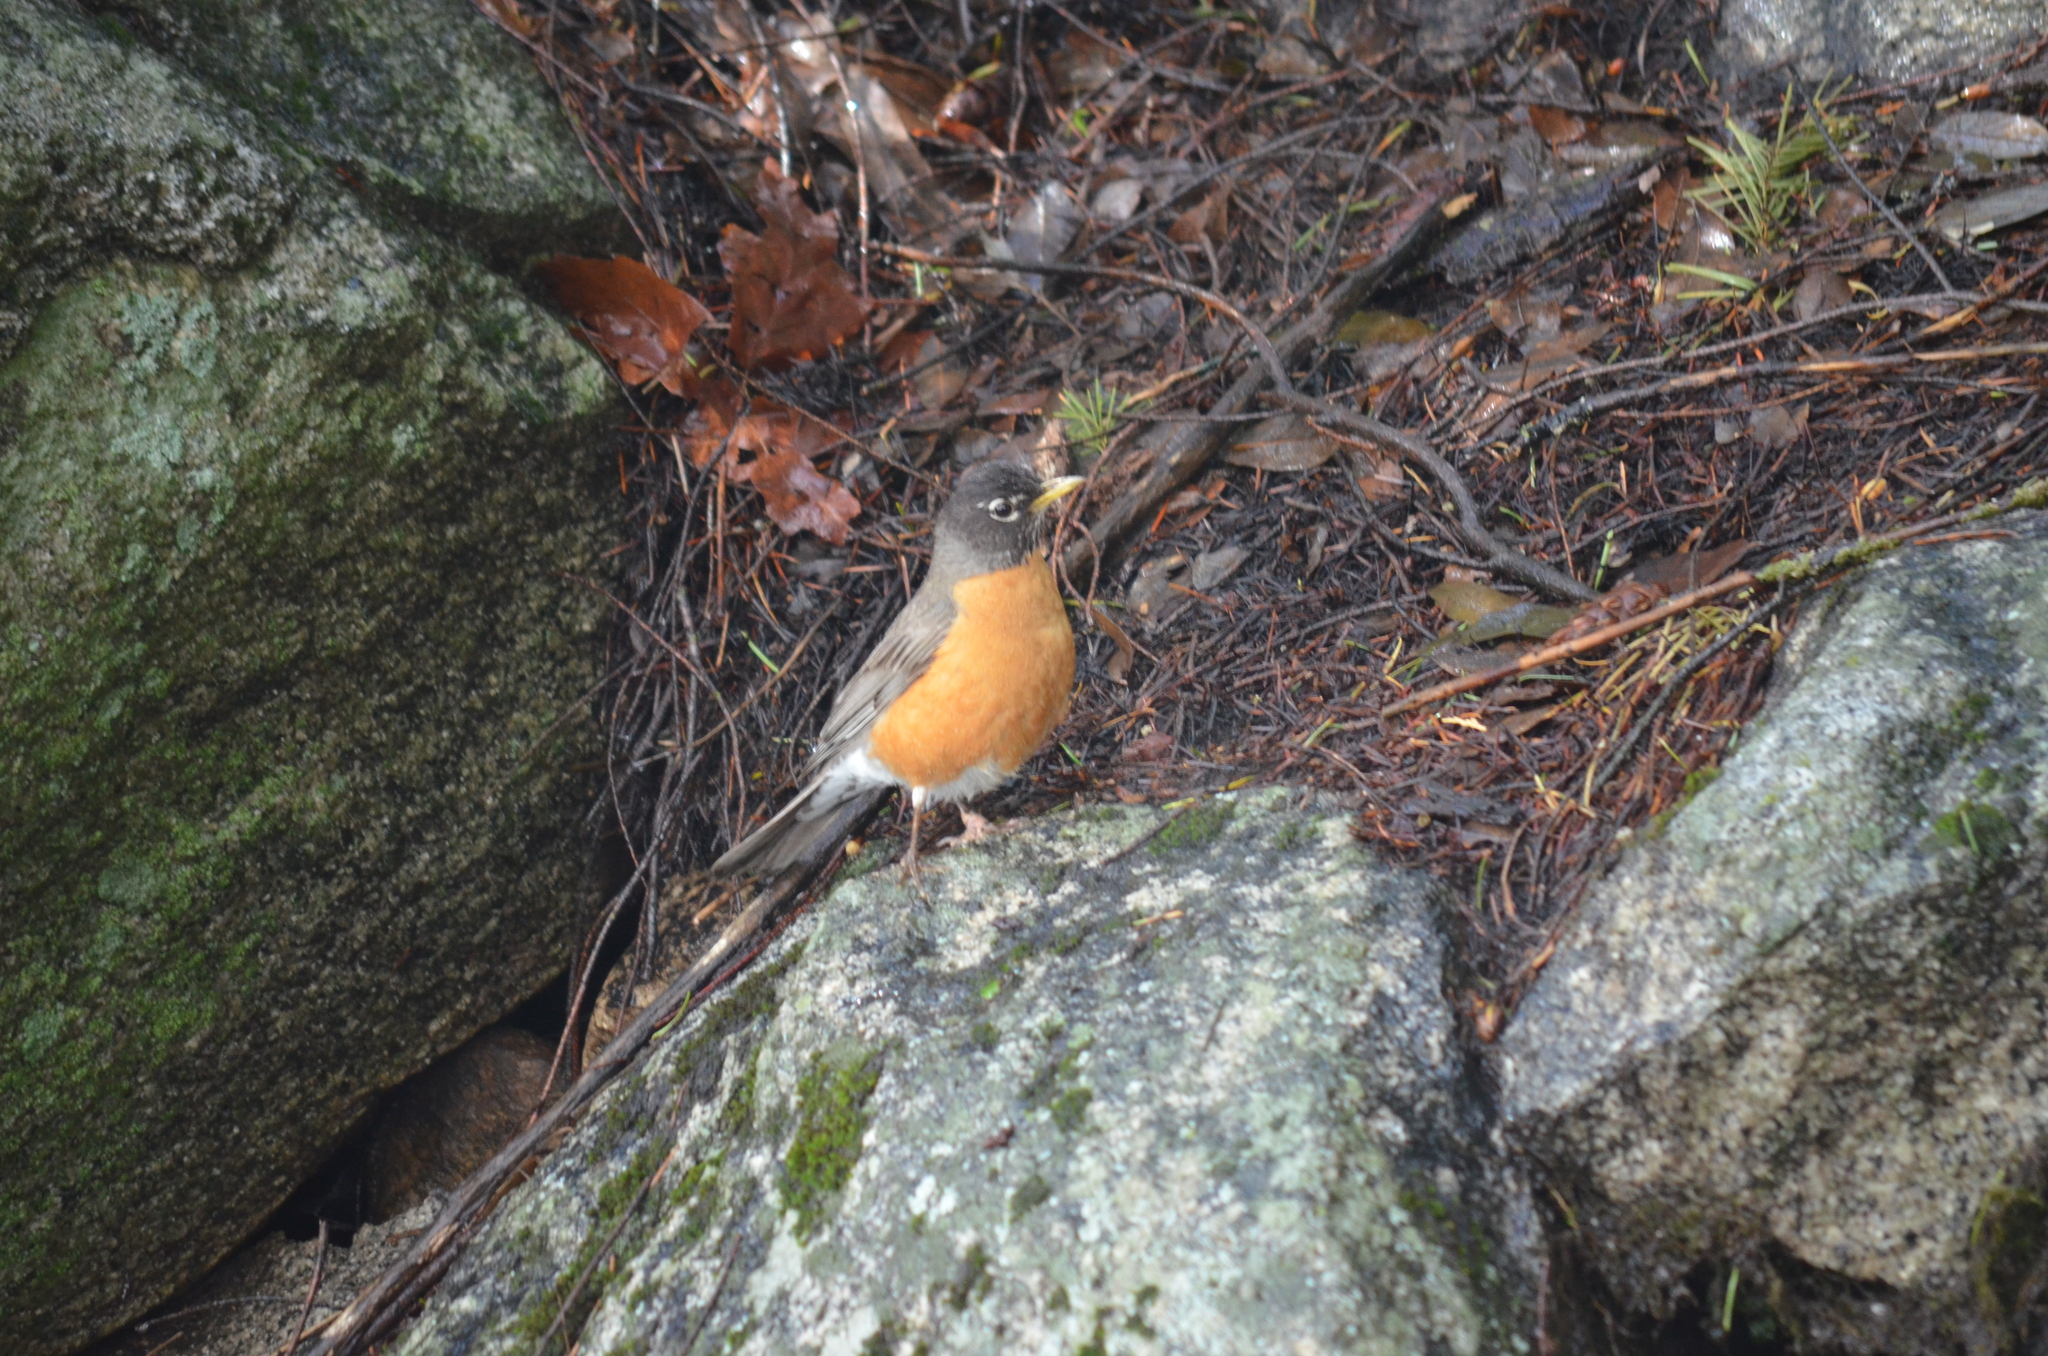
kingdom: Animalia
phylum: Chordata
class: Aves
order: Passeriformes
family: Turdidae
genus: Turdus
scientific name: Turdus migratorius
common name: American robin
